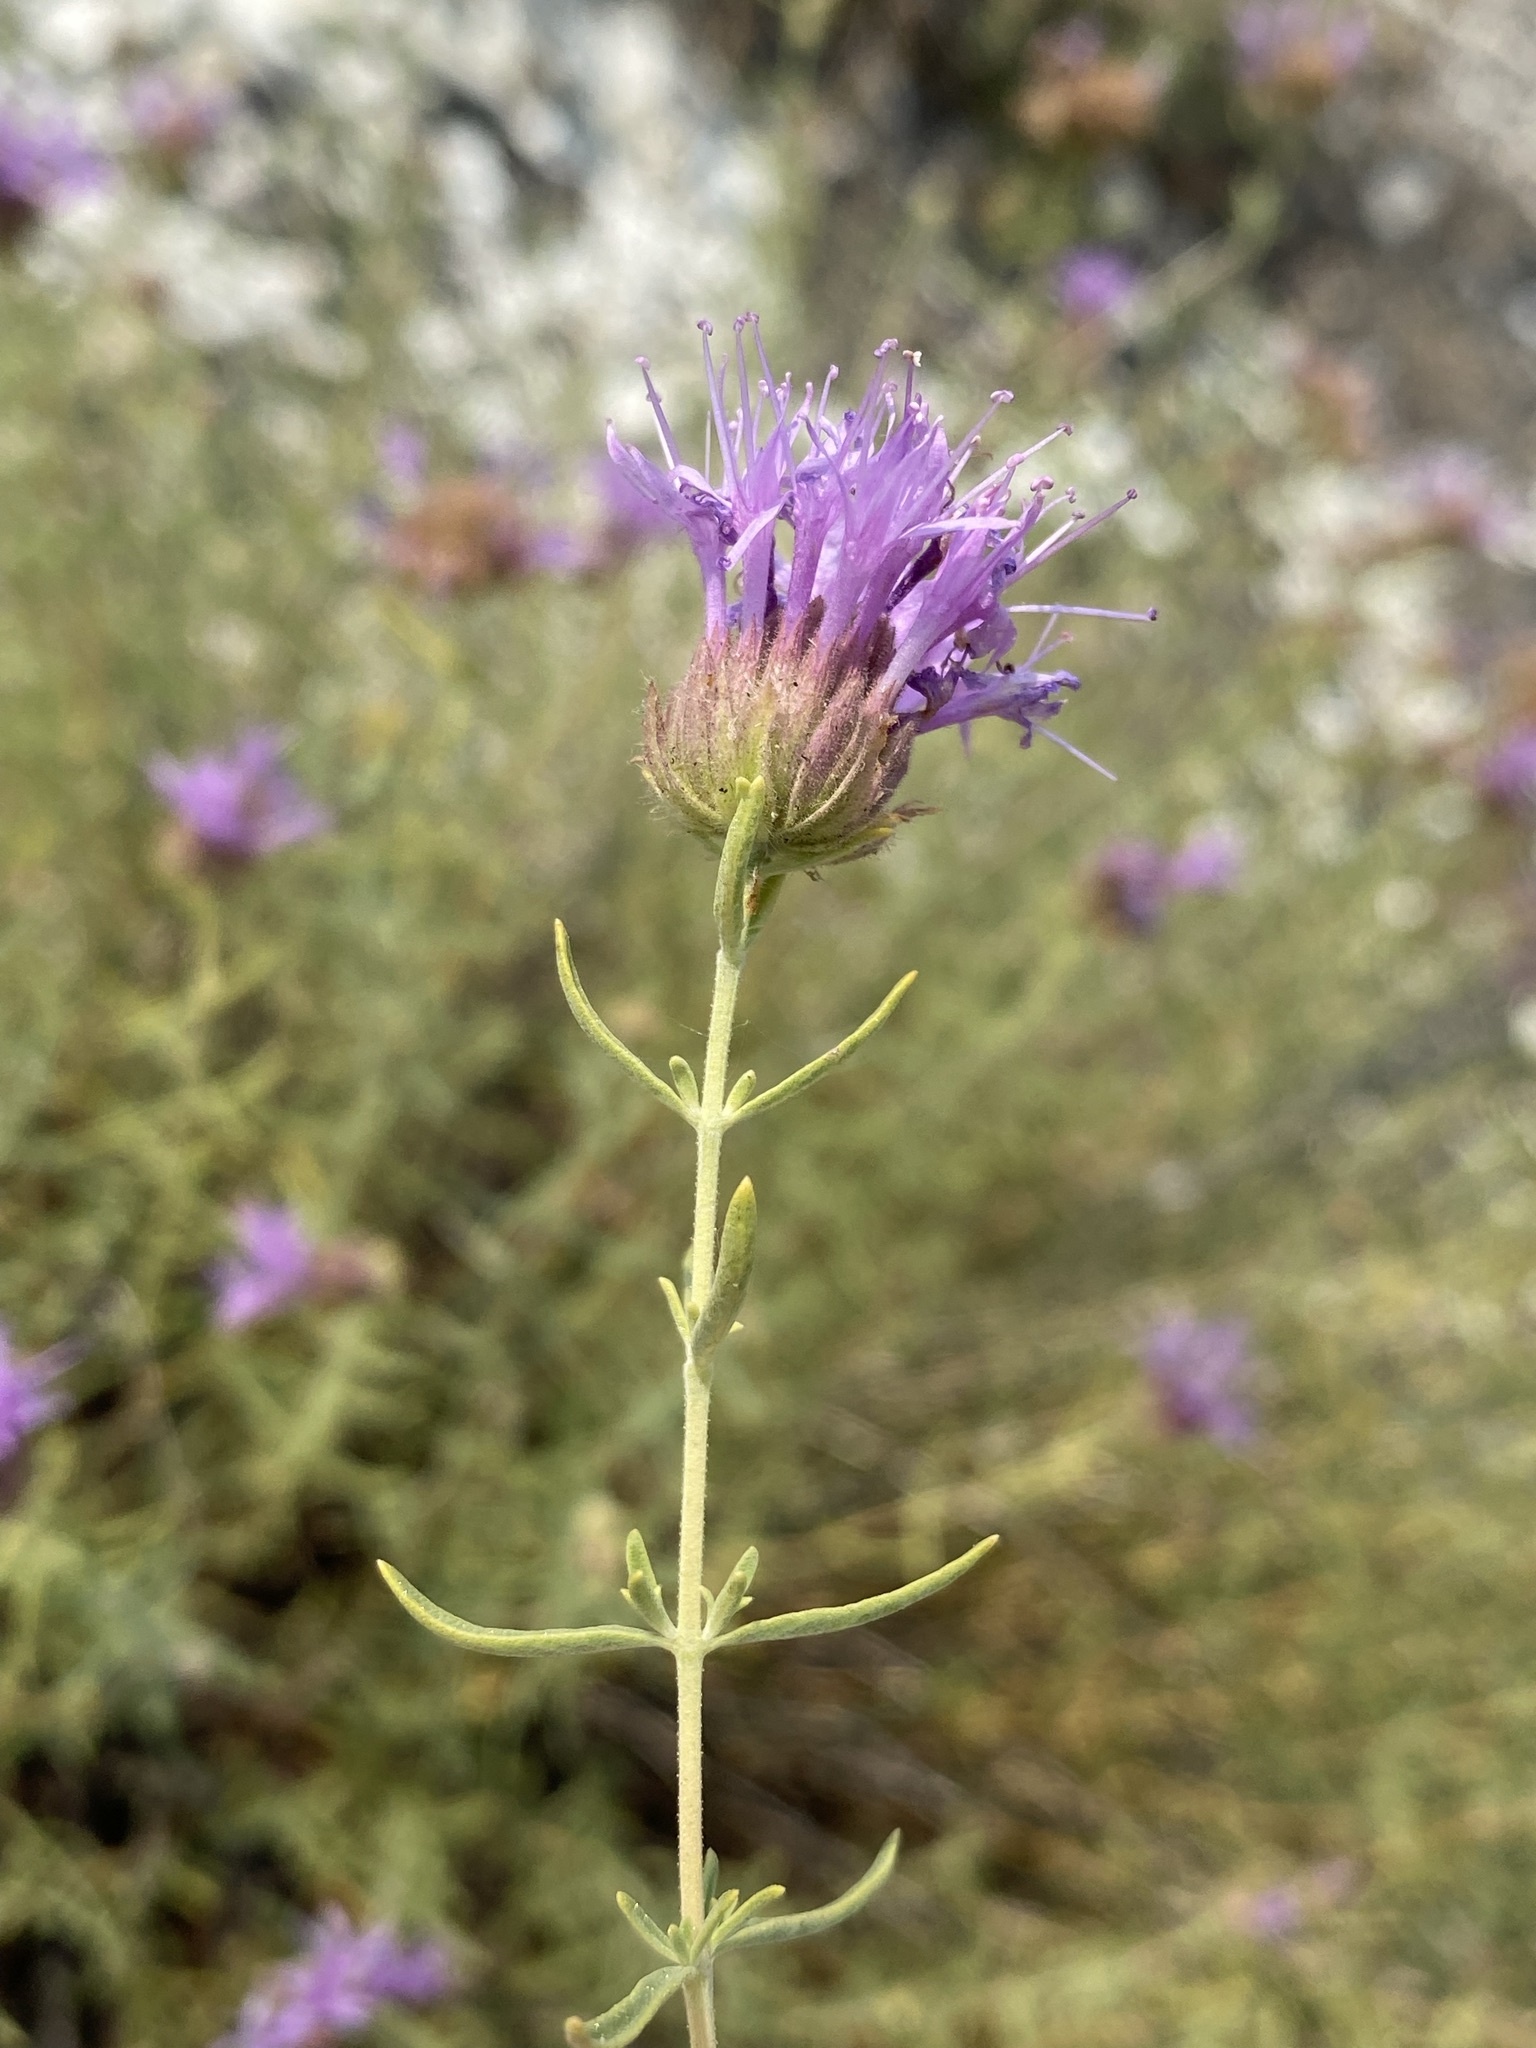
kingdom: Plantae
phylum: Tracheophyta
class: Magnoliopsida
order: Lamiales
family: Lamiaceae
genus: Monardella
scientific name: Monardella angustifolia
